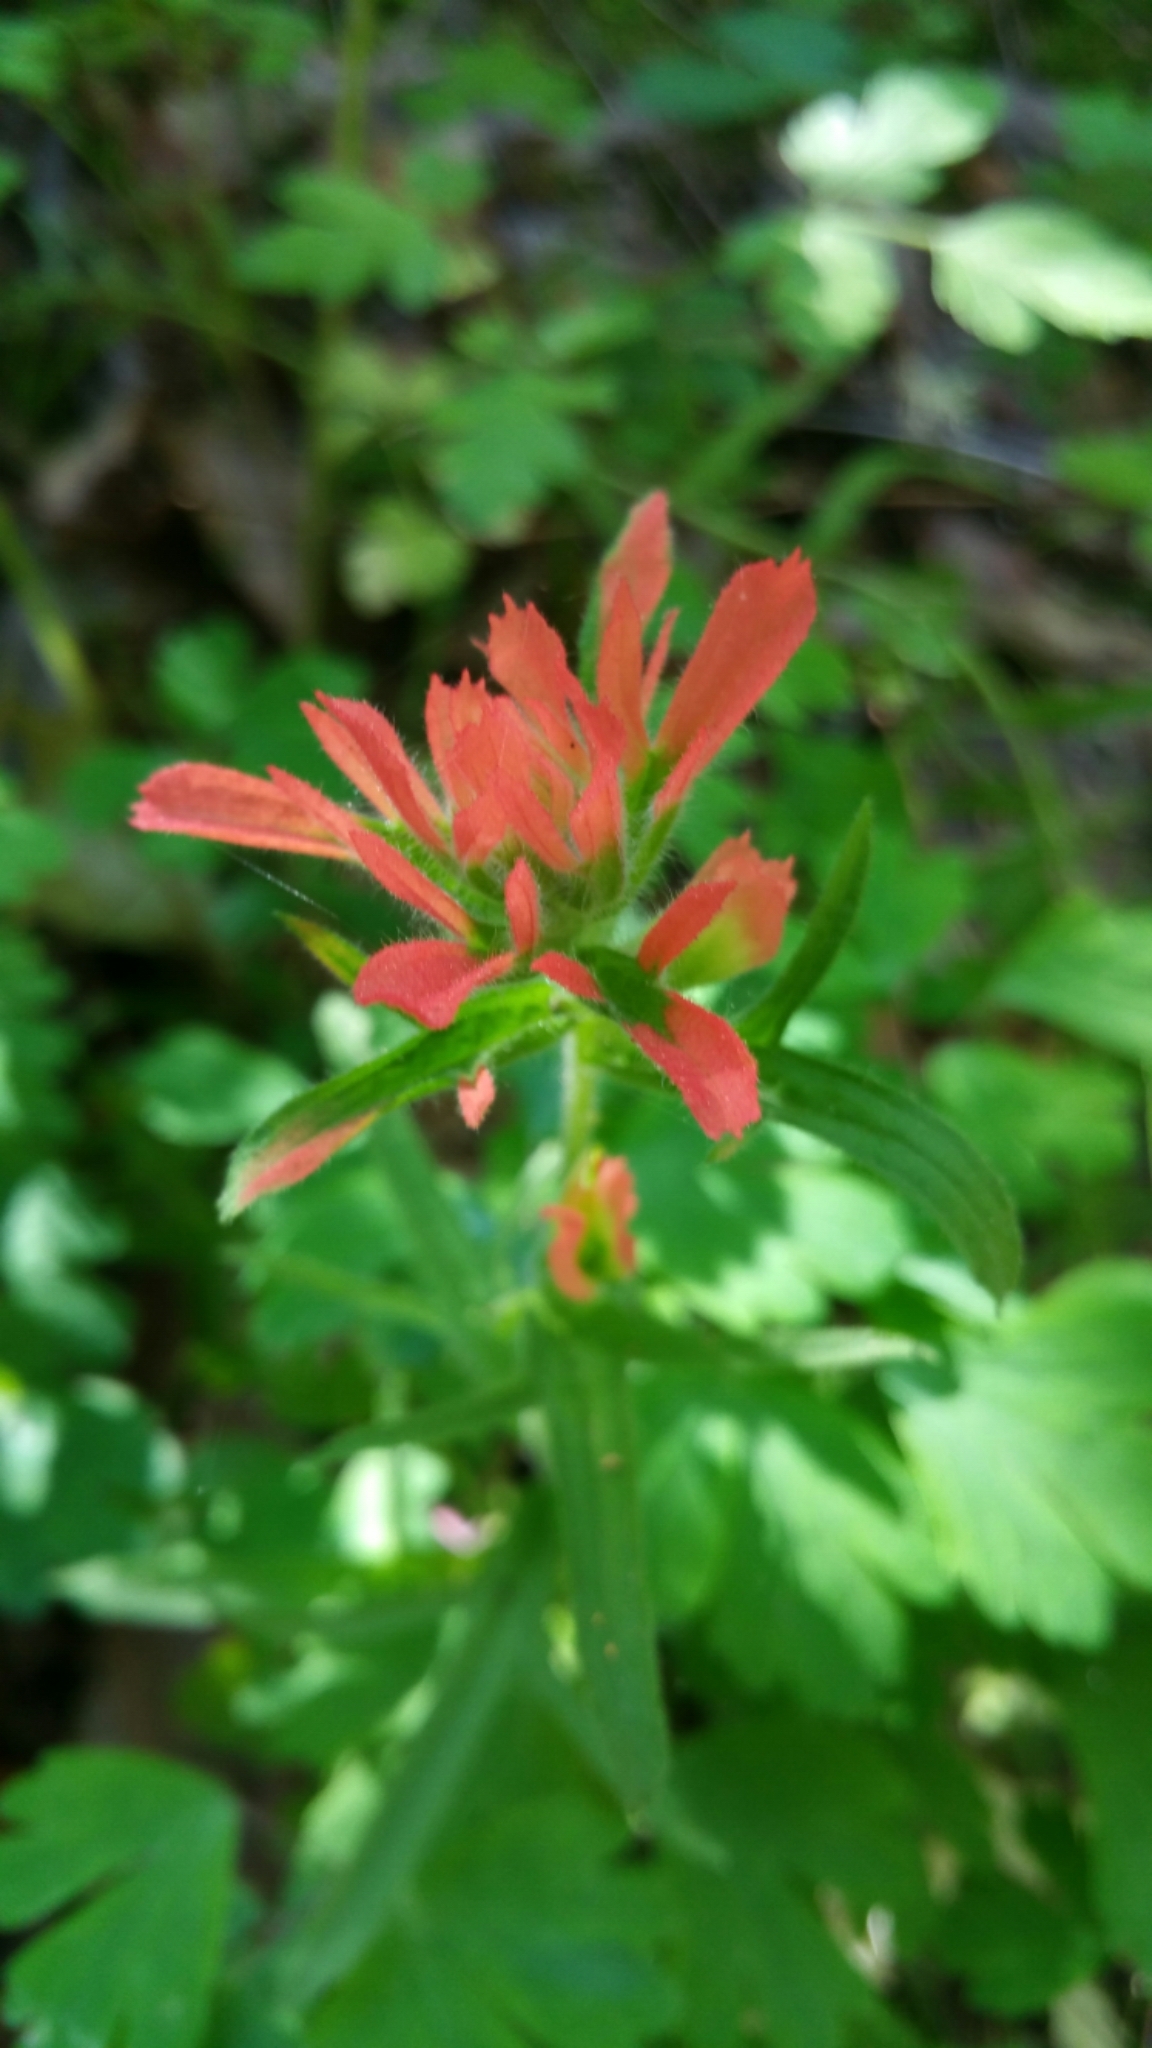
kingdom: Plantae
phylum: Tracheophyta
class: Magnoliopsida
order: Lamiales
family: Orobanchaceae
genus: Castilleja
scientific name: Castilleja affinis
